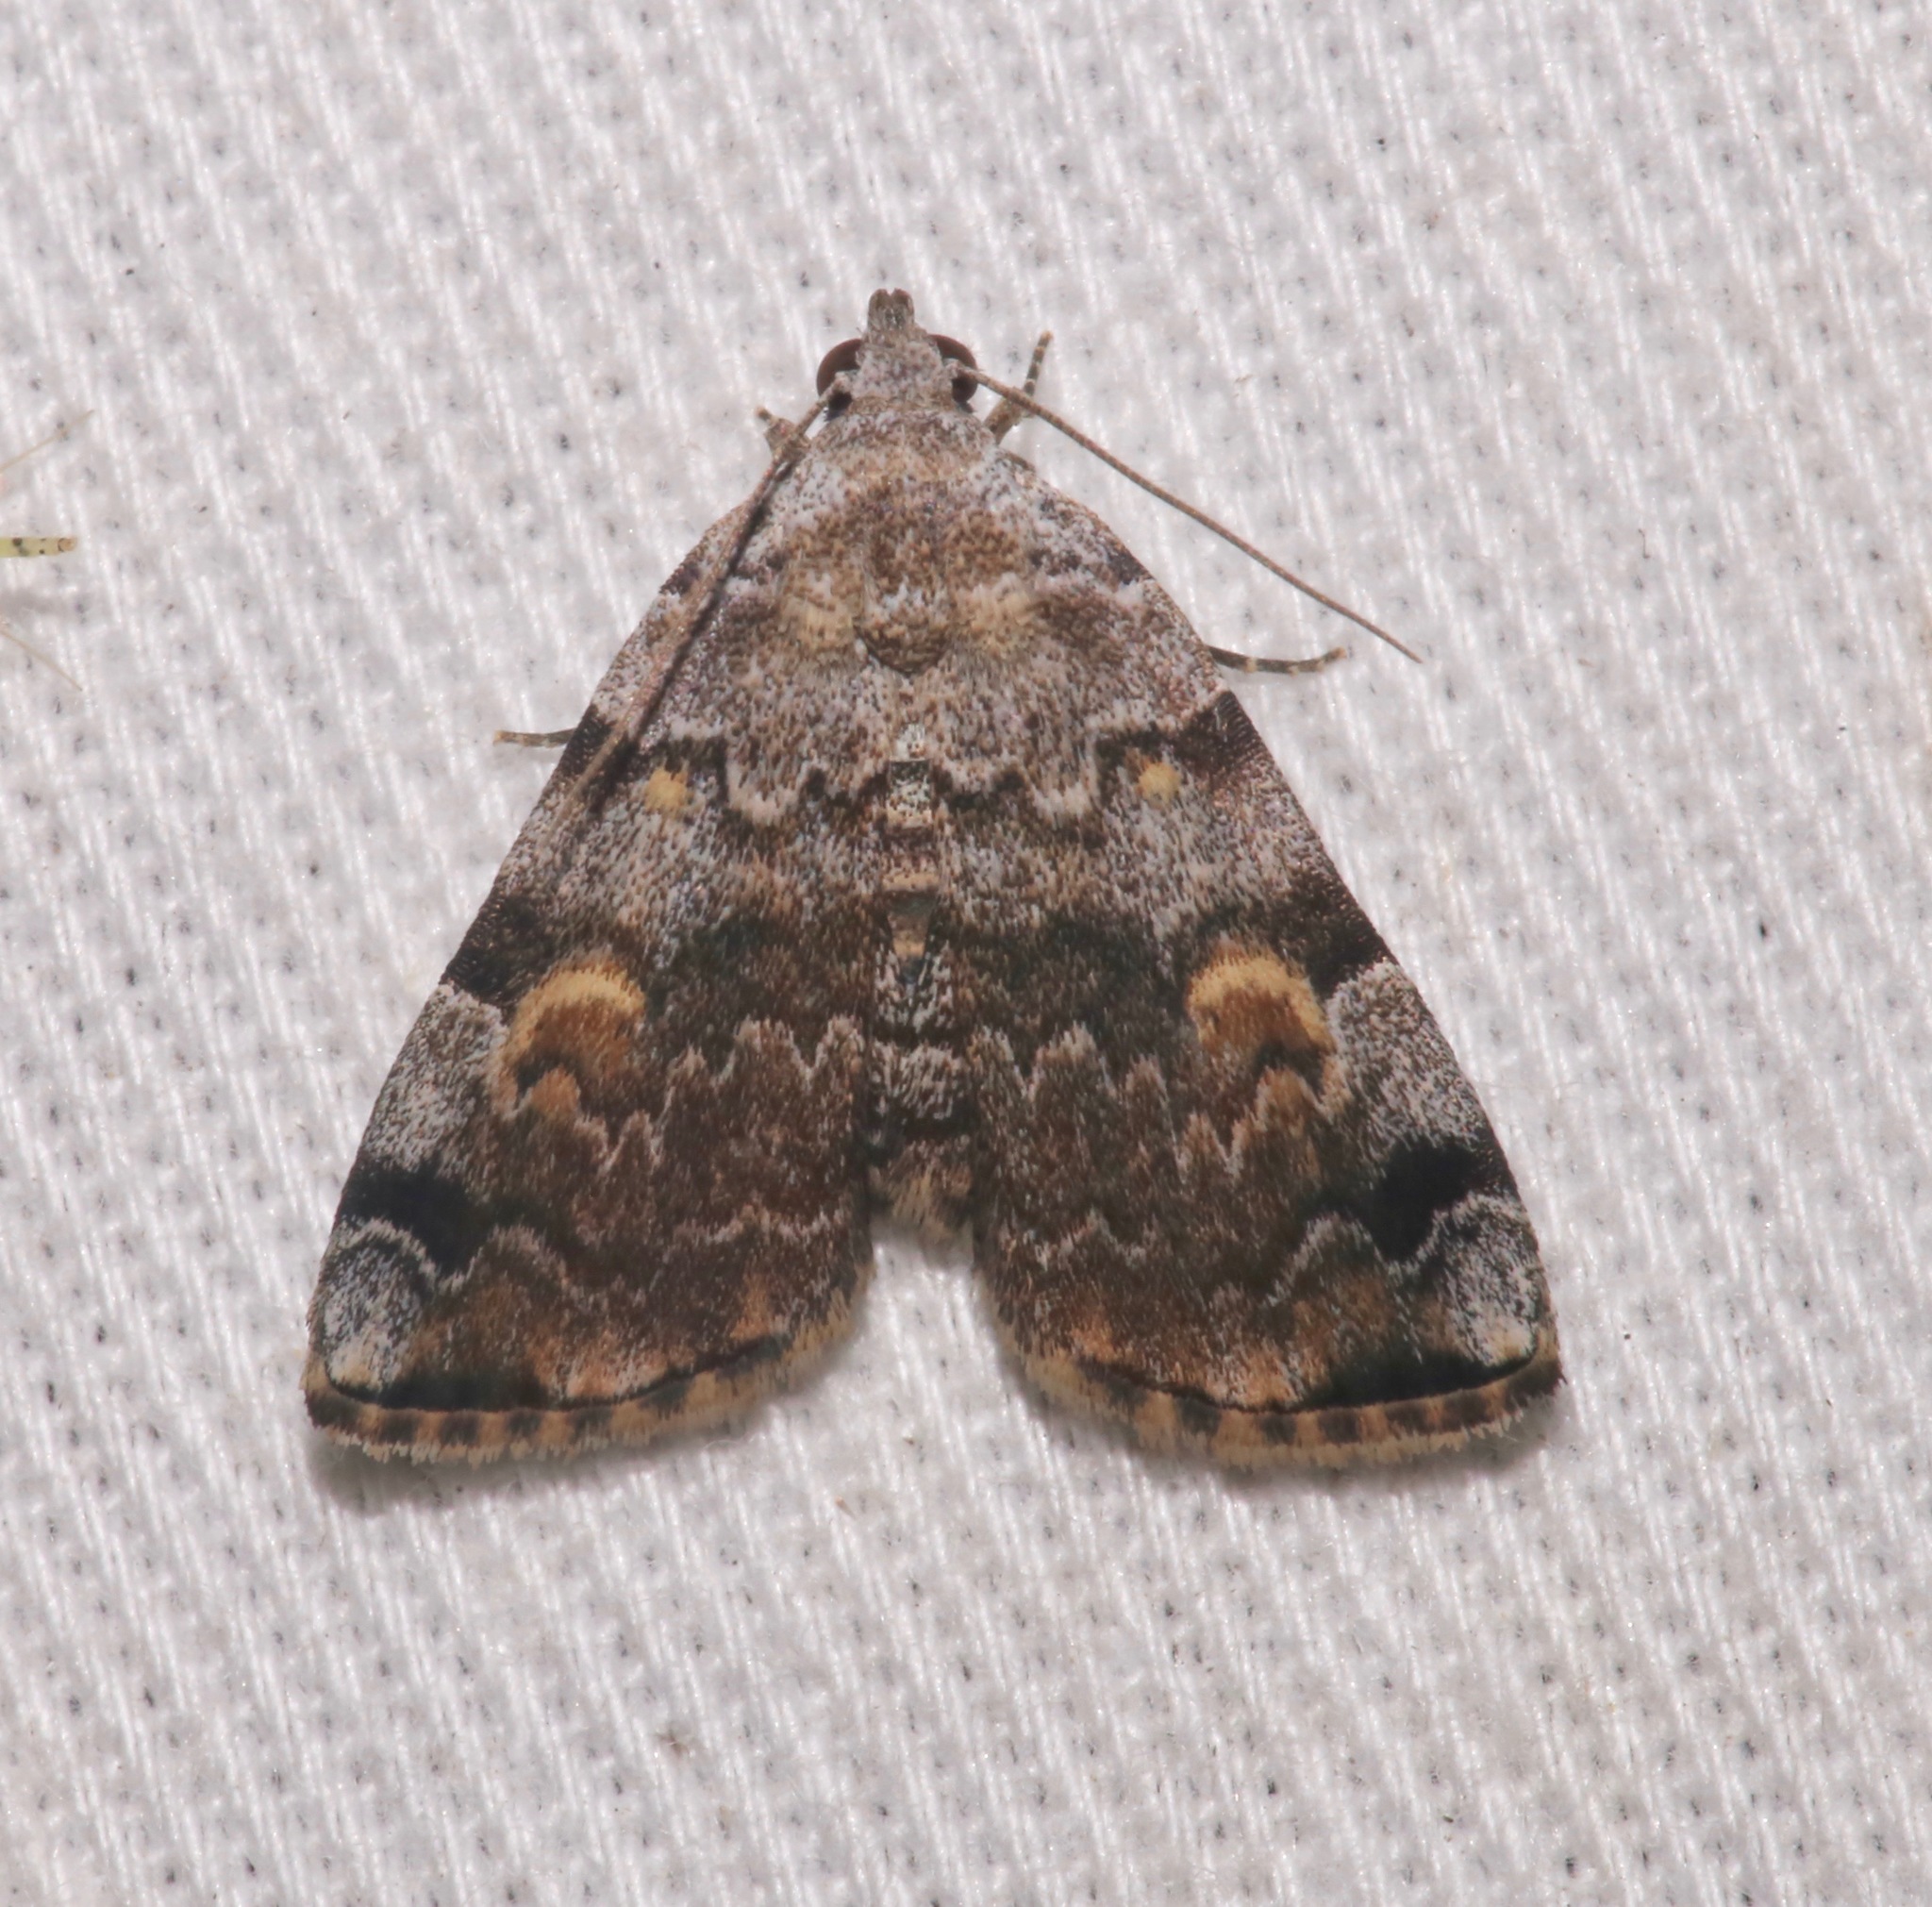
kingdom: Animalia
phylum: Arthropoda
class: Insecta
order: Lepidoptera
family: Erebidae
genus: Idia
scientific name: Idia americalis
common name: American idia moth
